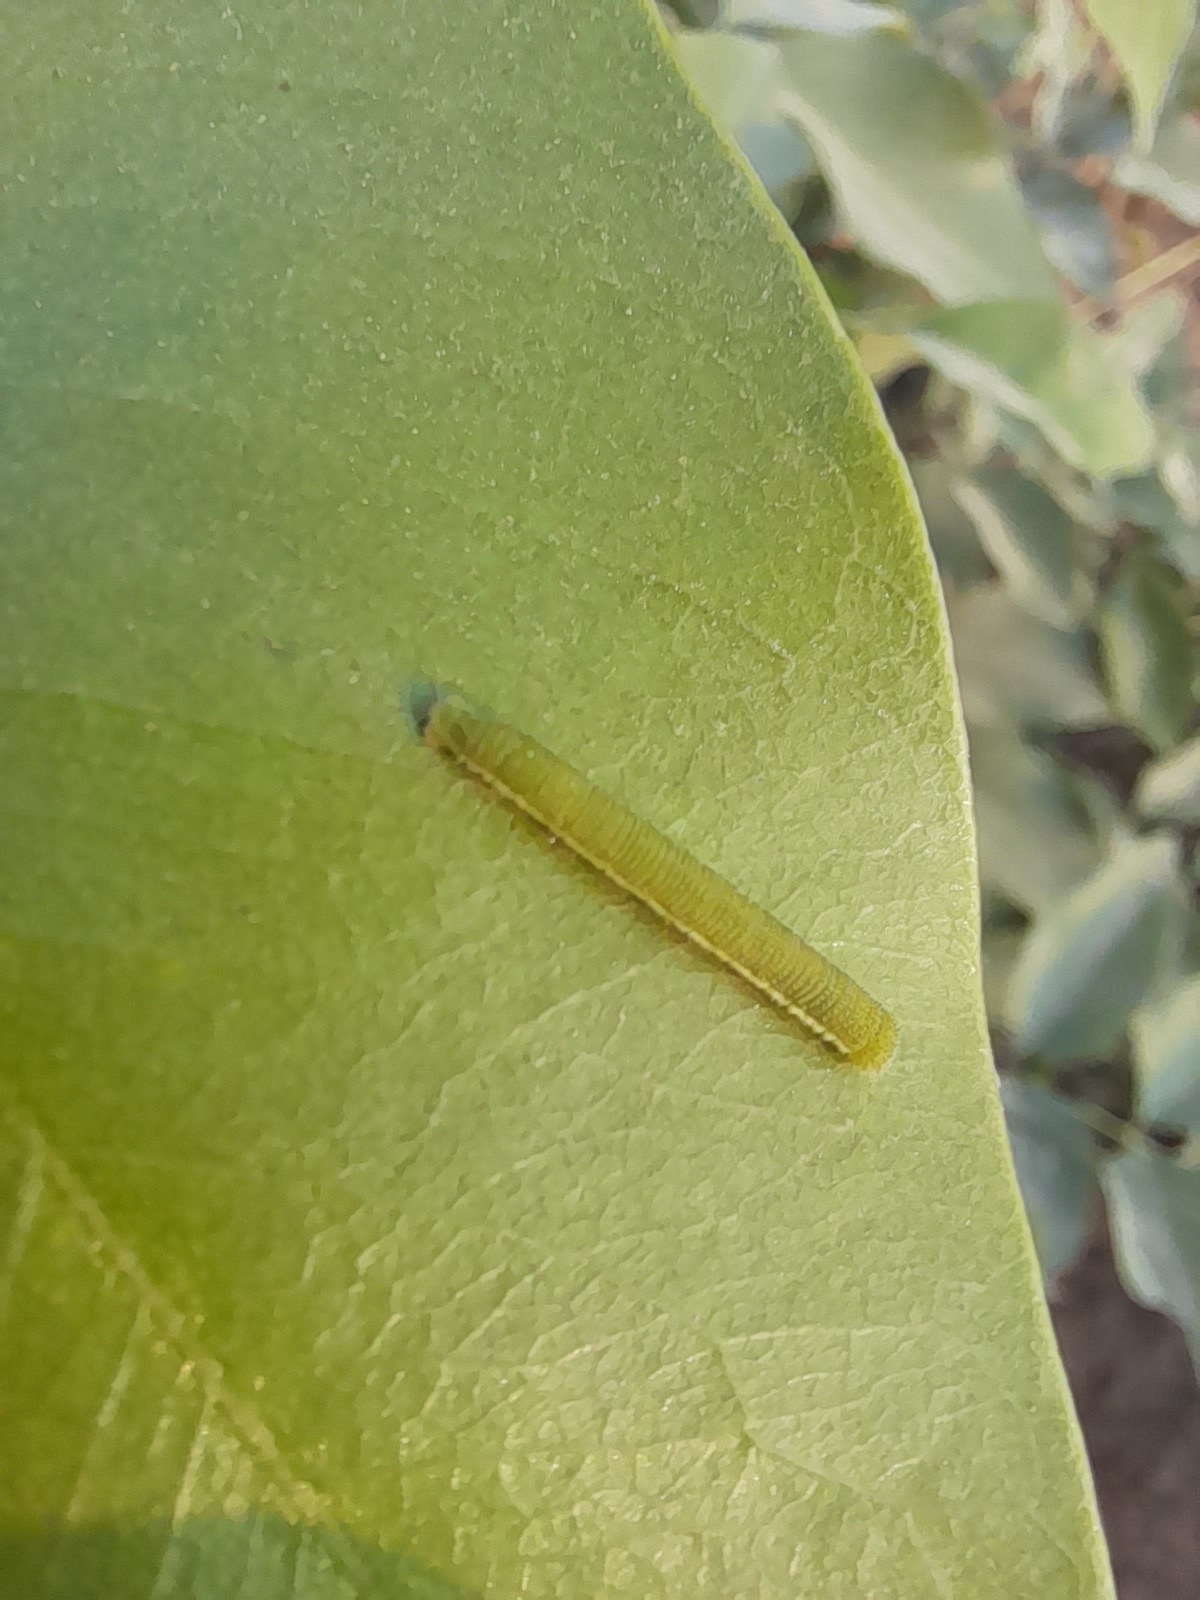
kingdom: Animalia
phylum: Arthropoda
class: Insecta
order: Lepidoptera
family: Pieridae
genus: Catopsilia
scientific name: Catopsilia pomona
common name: Common emigrant
